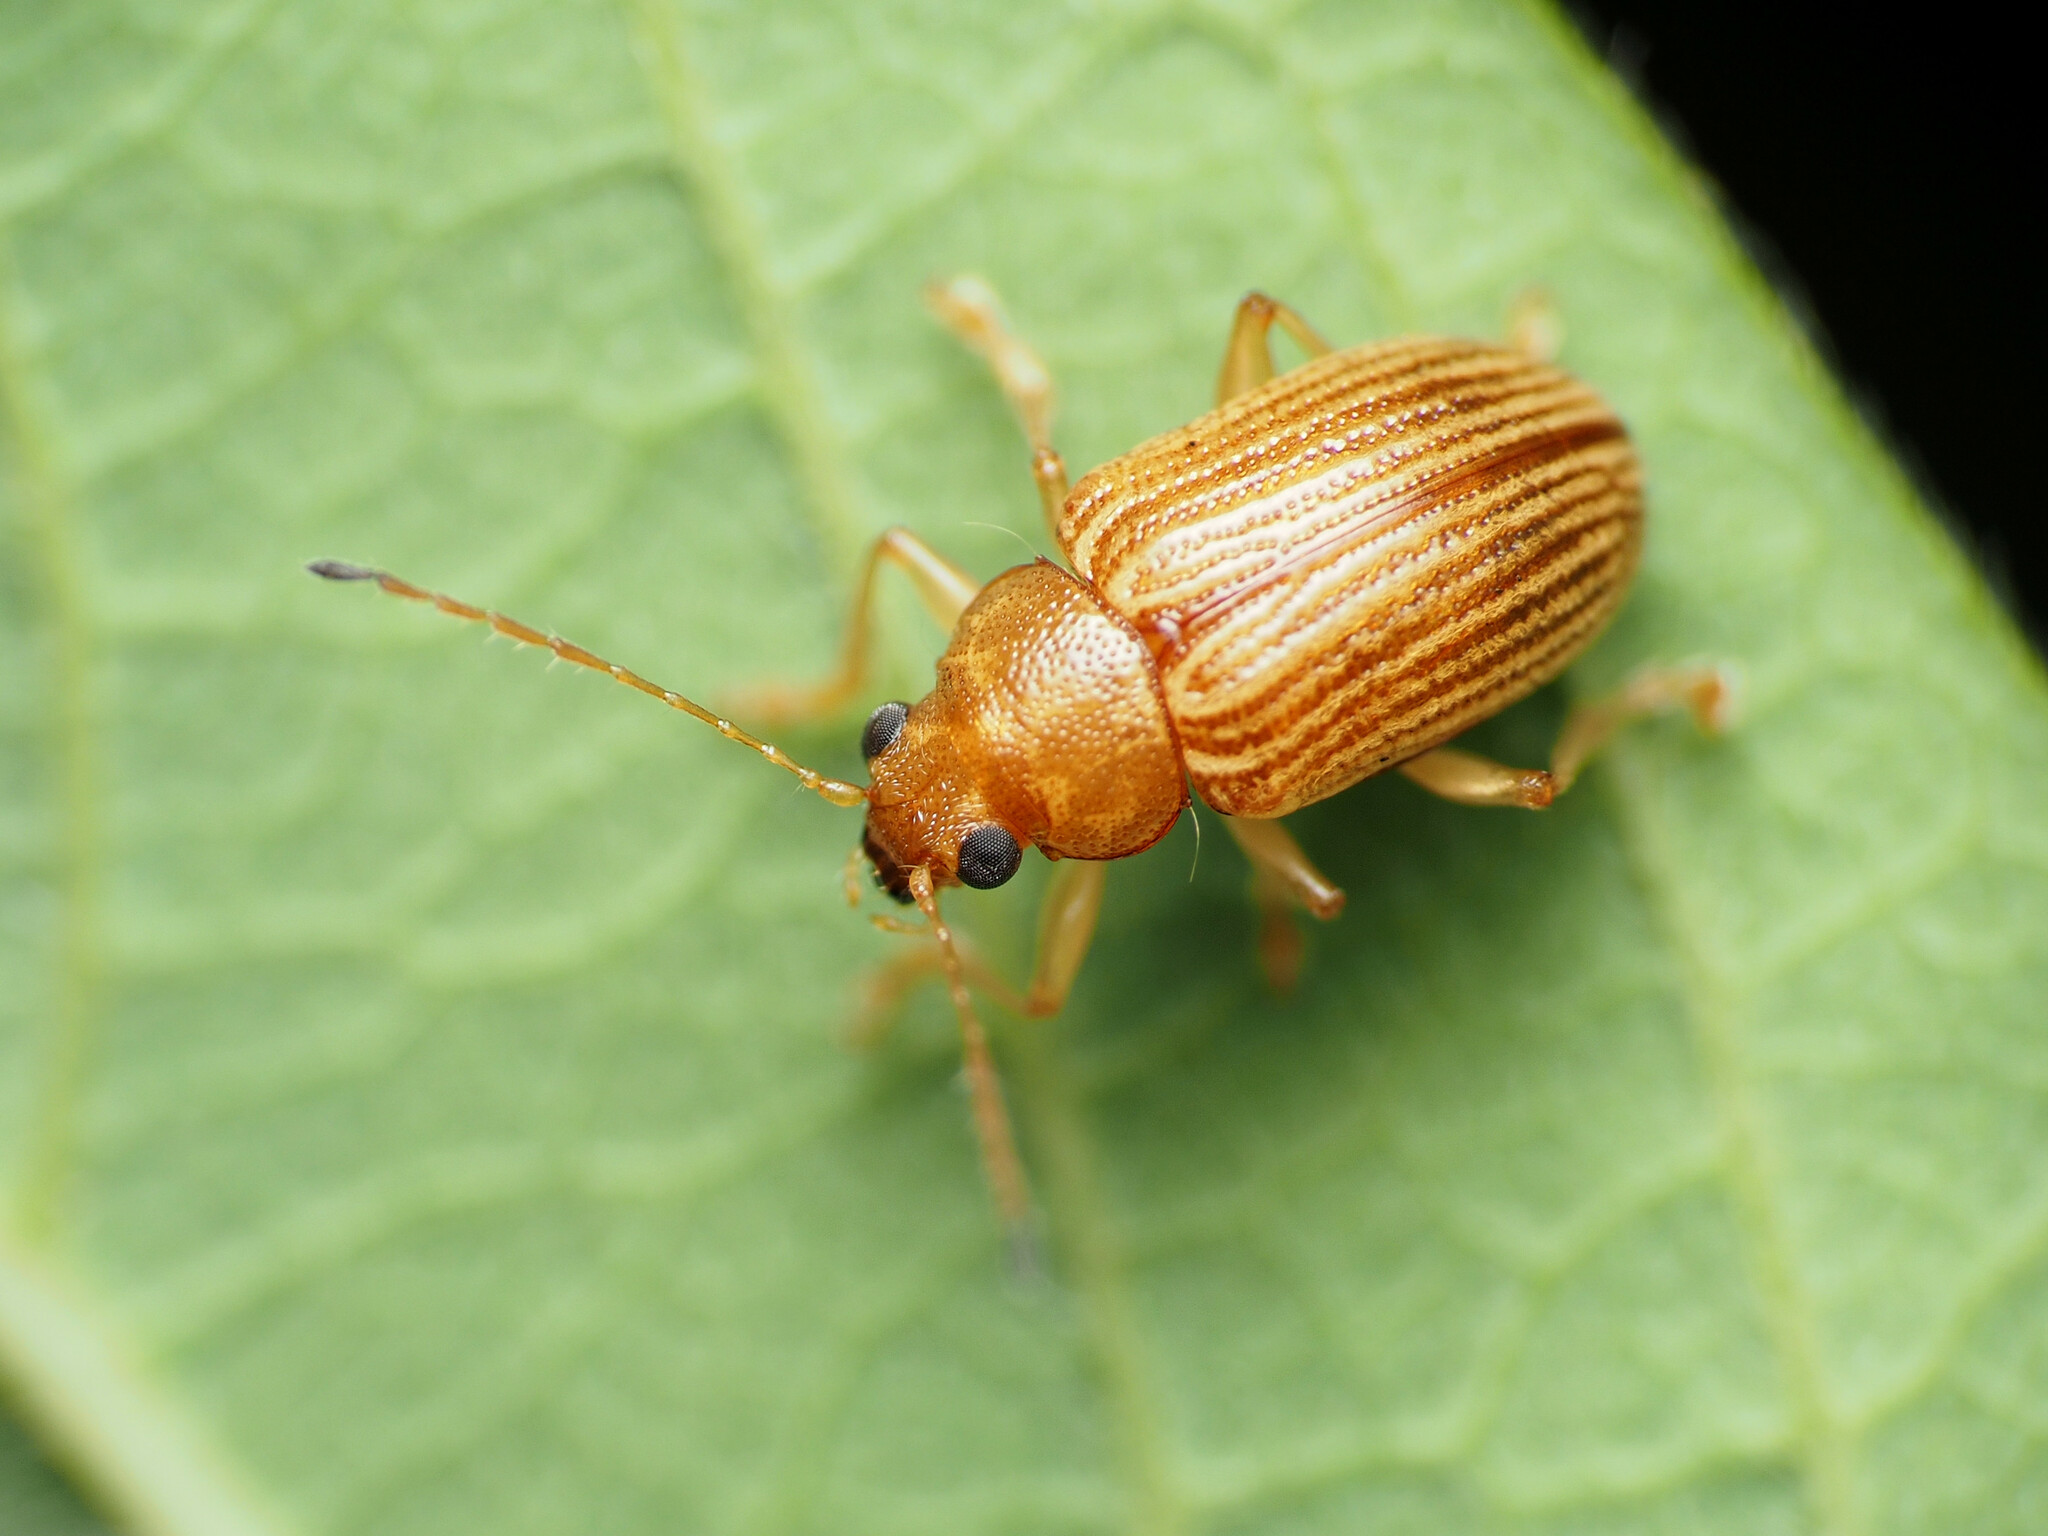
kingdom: Animalia
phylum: Arthropoda
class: Insecta
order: Coleoptera
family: Chrysomelidae
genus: Colaspis
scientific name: Colaspis brunnea
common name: Grape colaspis
